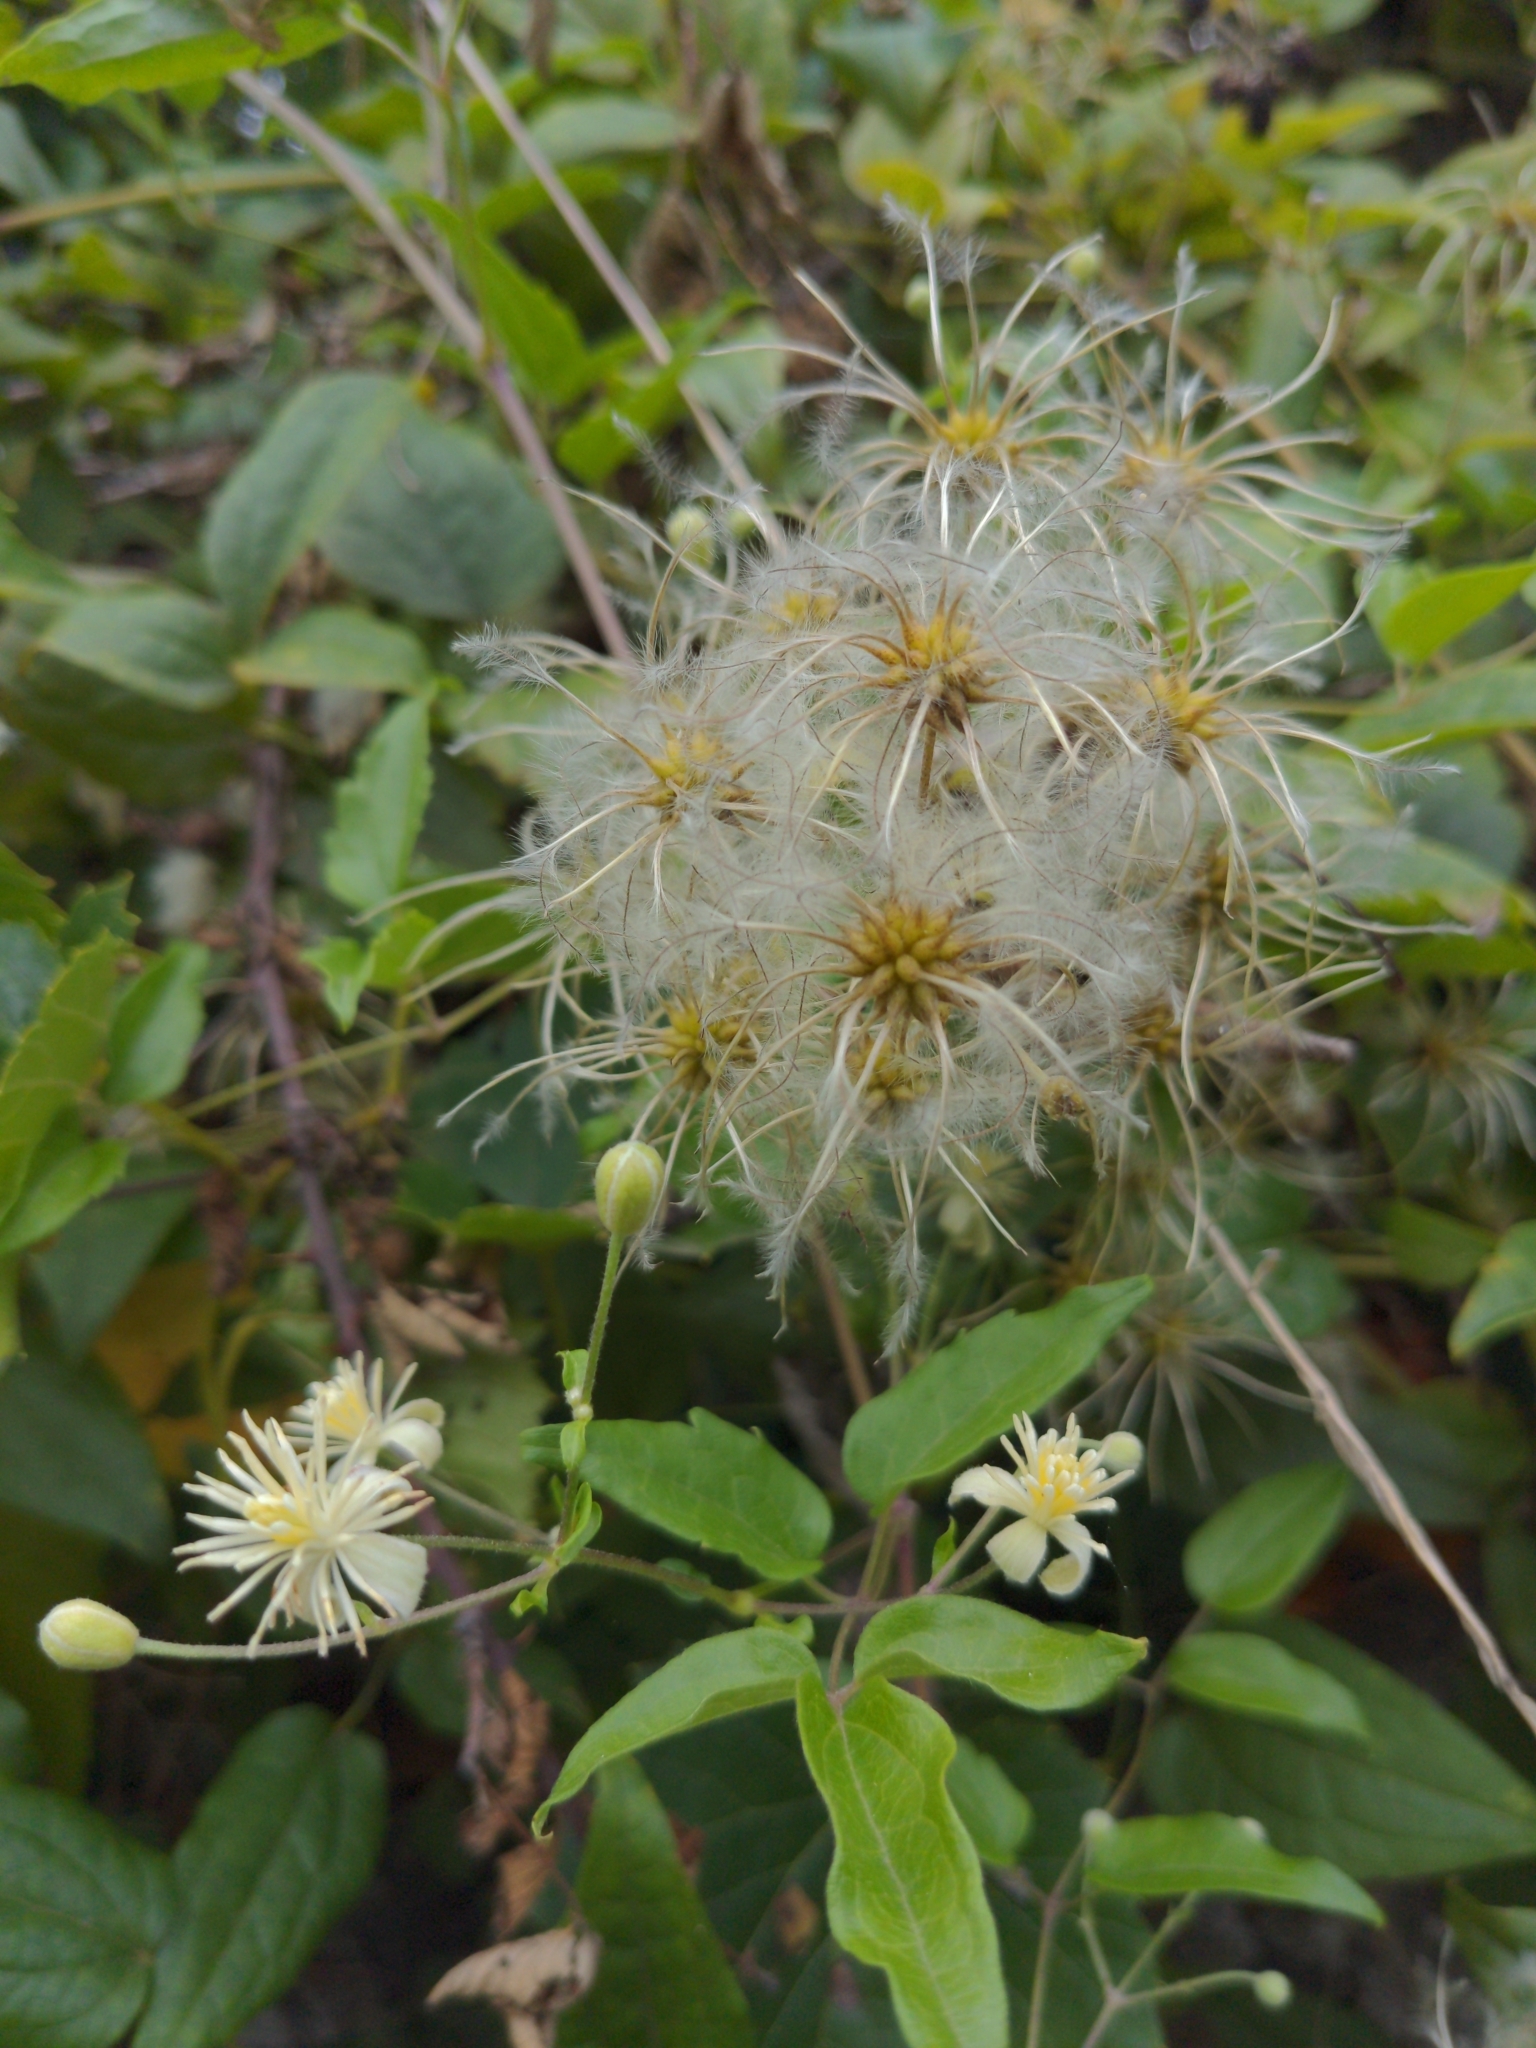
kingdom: Plantae
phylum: Tracheophyta
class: Magnoliopsida
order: Ranunculales
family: Ranunculaceae
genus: Clematis
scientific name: Clematis vitalba
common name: Evergreen clematis
